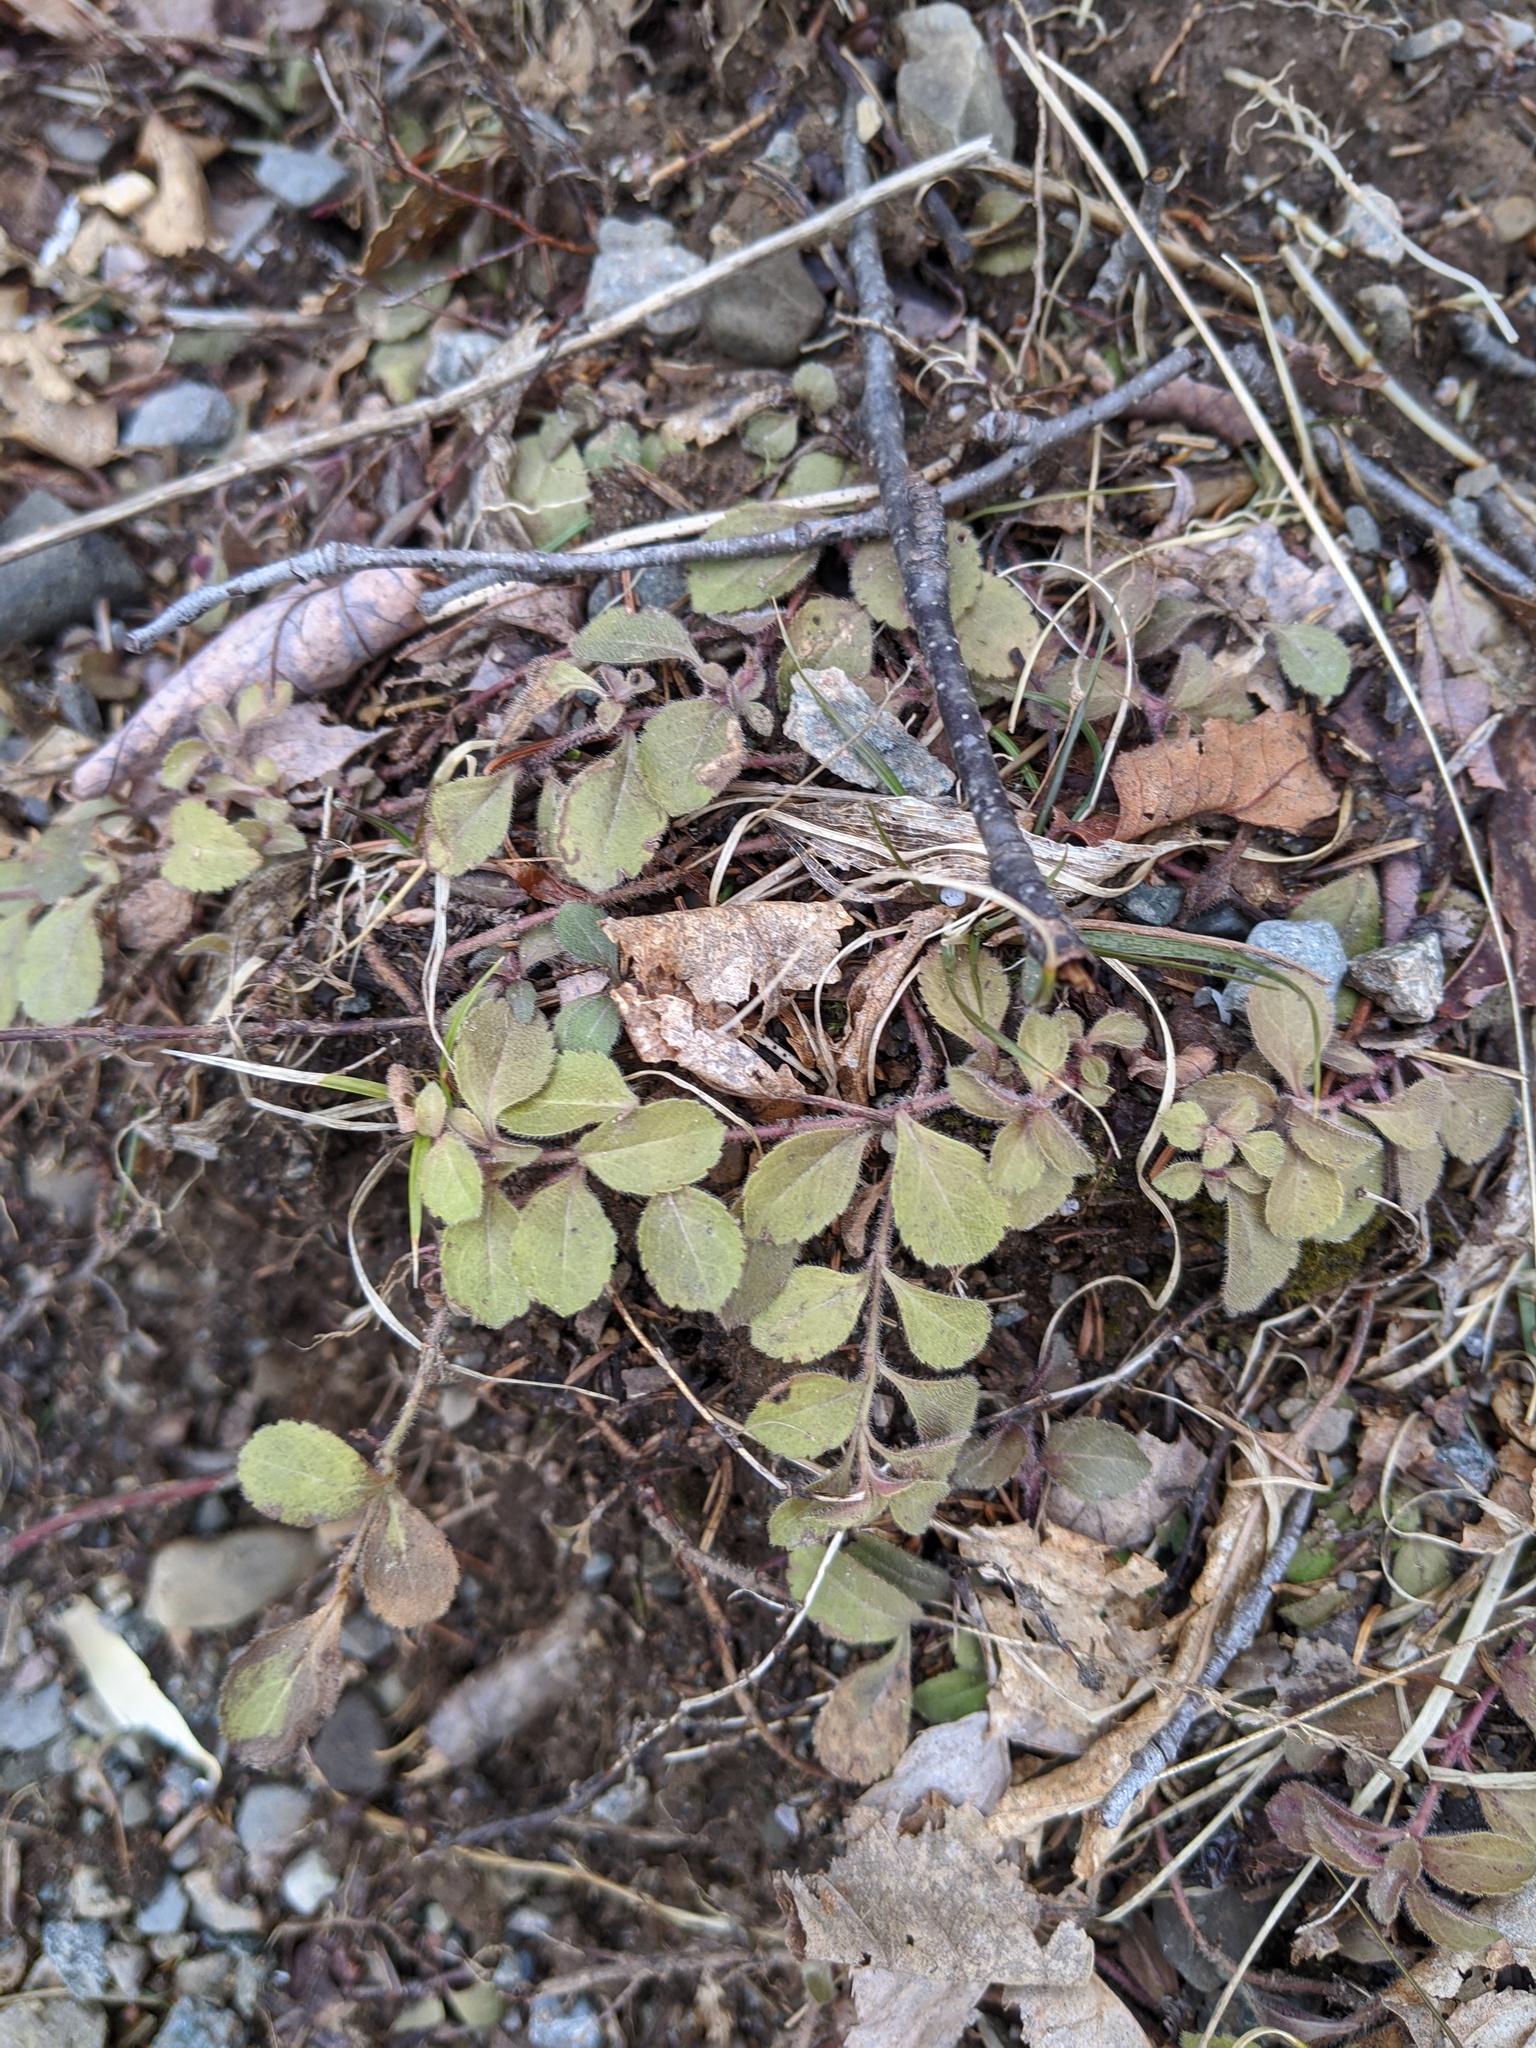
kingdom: Plantae
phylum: Tracheophyta
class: Magnoliopsida
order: Lamiales
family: Plantaginaceae
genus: Veronica
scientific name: Veronica officinalis
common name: Common speedwell
